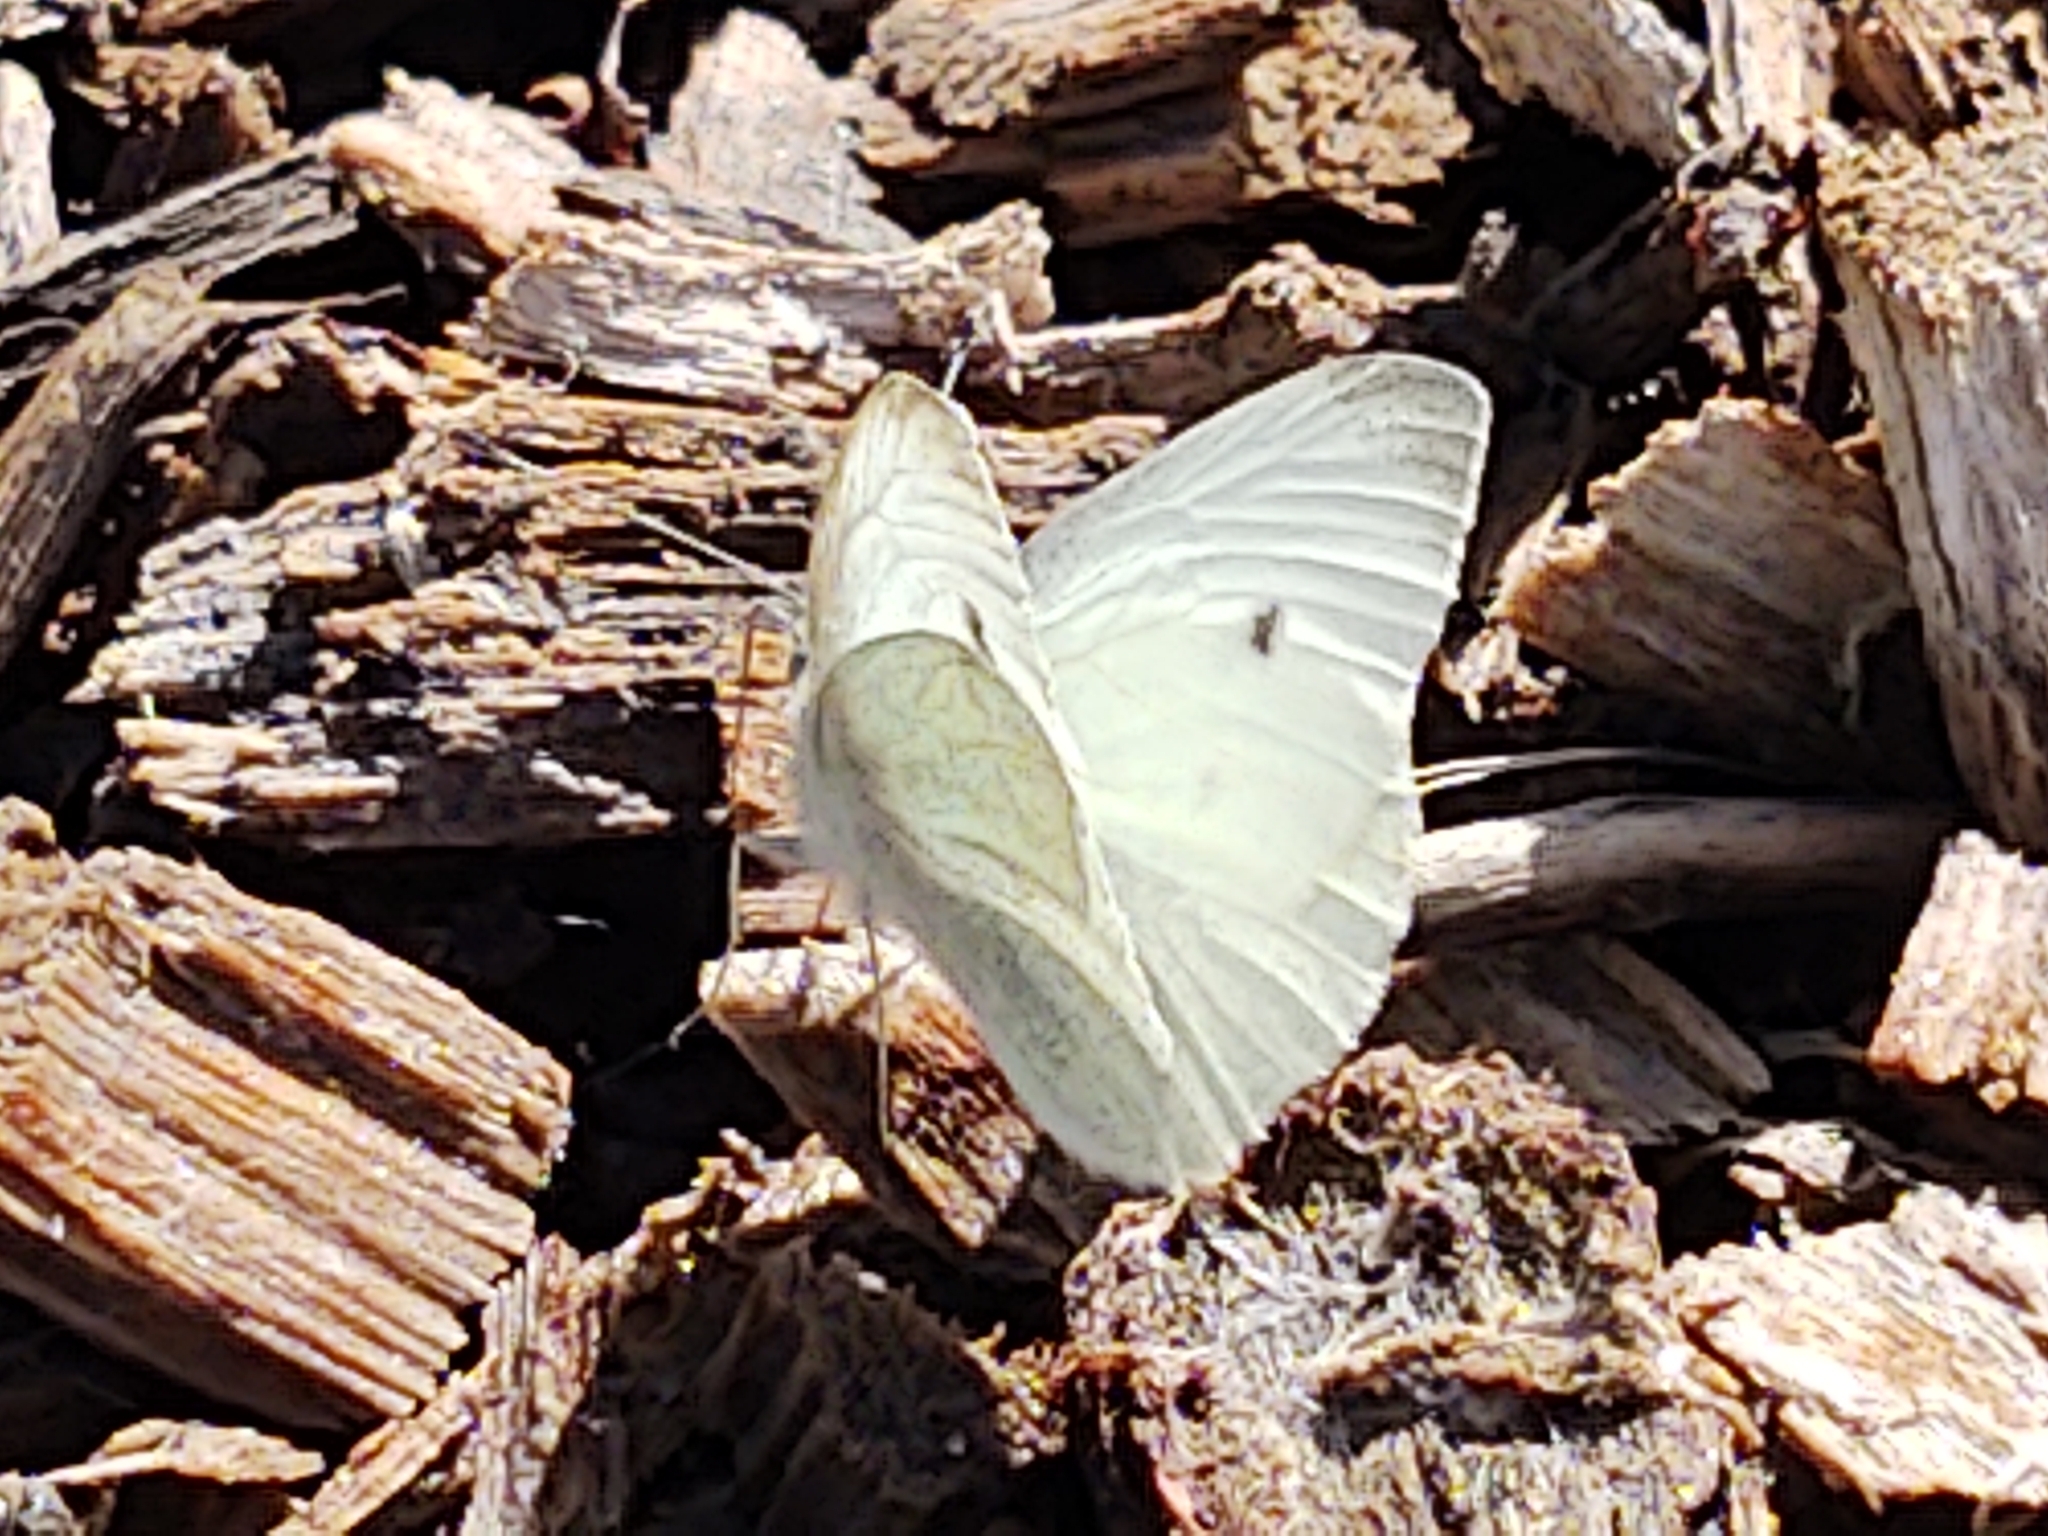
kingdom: Animalia
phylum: Arthropoda
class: Insecta
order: Lepidoptera
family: Pieridae
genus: Pieris
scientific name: Pieris rapae
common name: Small white
